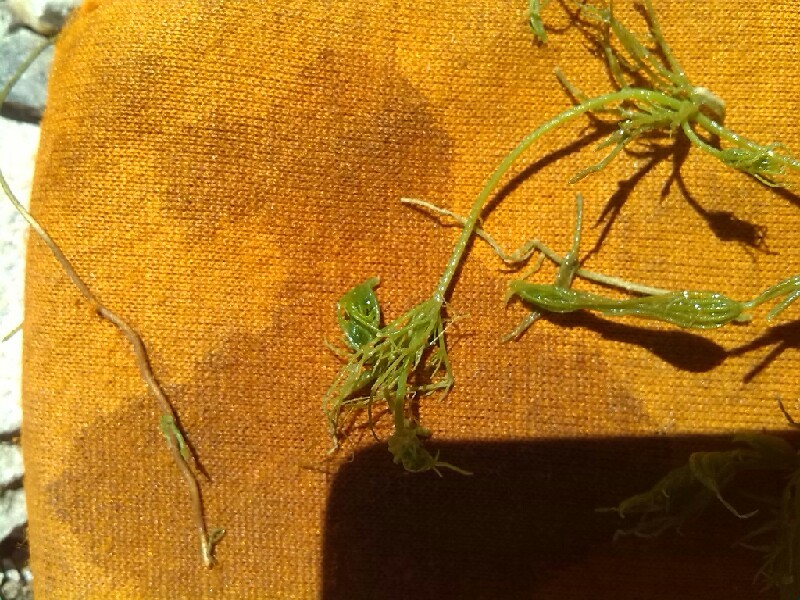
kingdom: Plantae
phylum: Charophyta
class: Charophyceae
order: Charales
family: Characeae
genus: Chara
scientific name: Chara vulgaris
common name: Common stonewort
